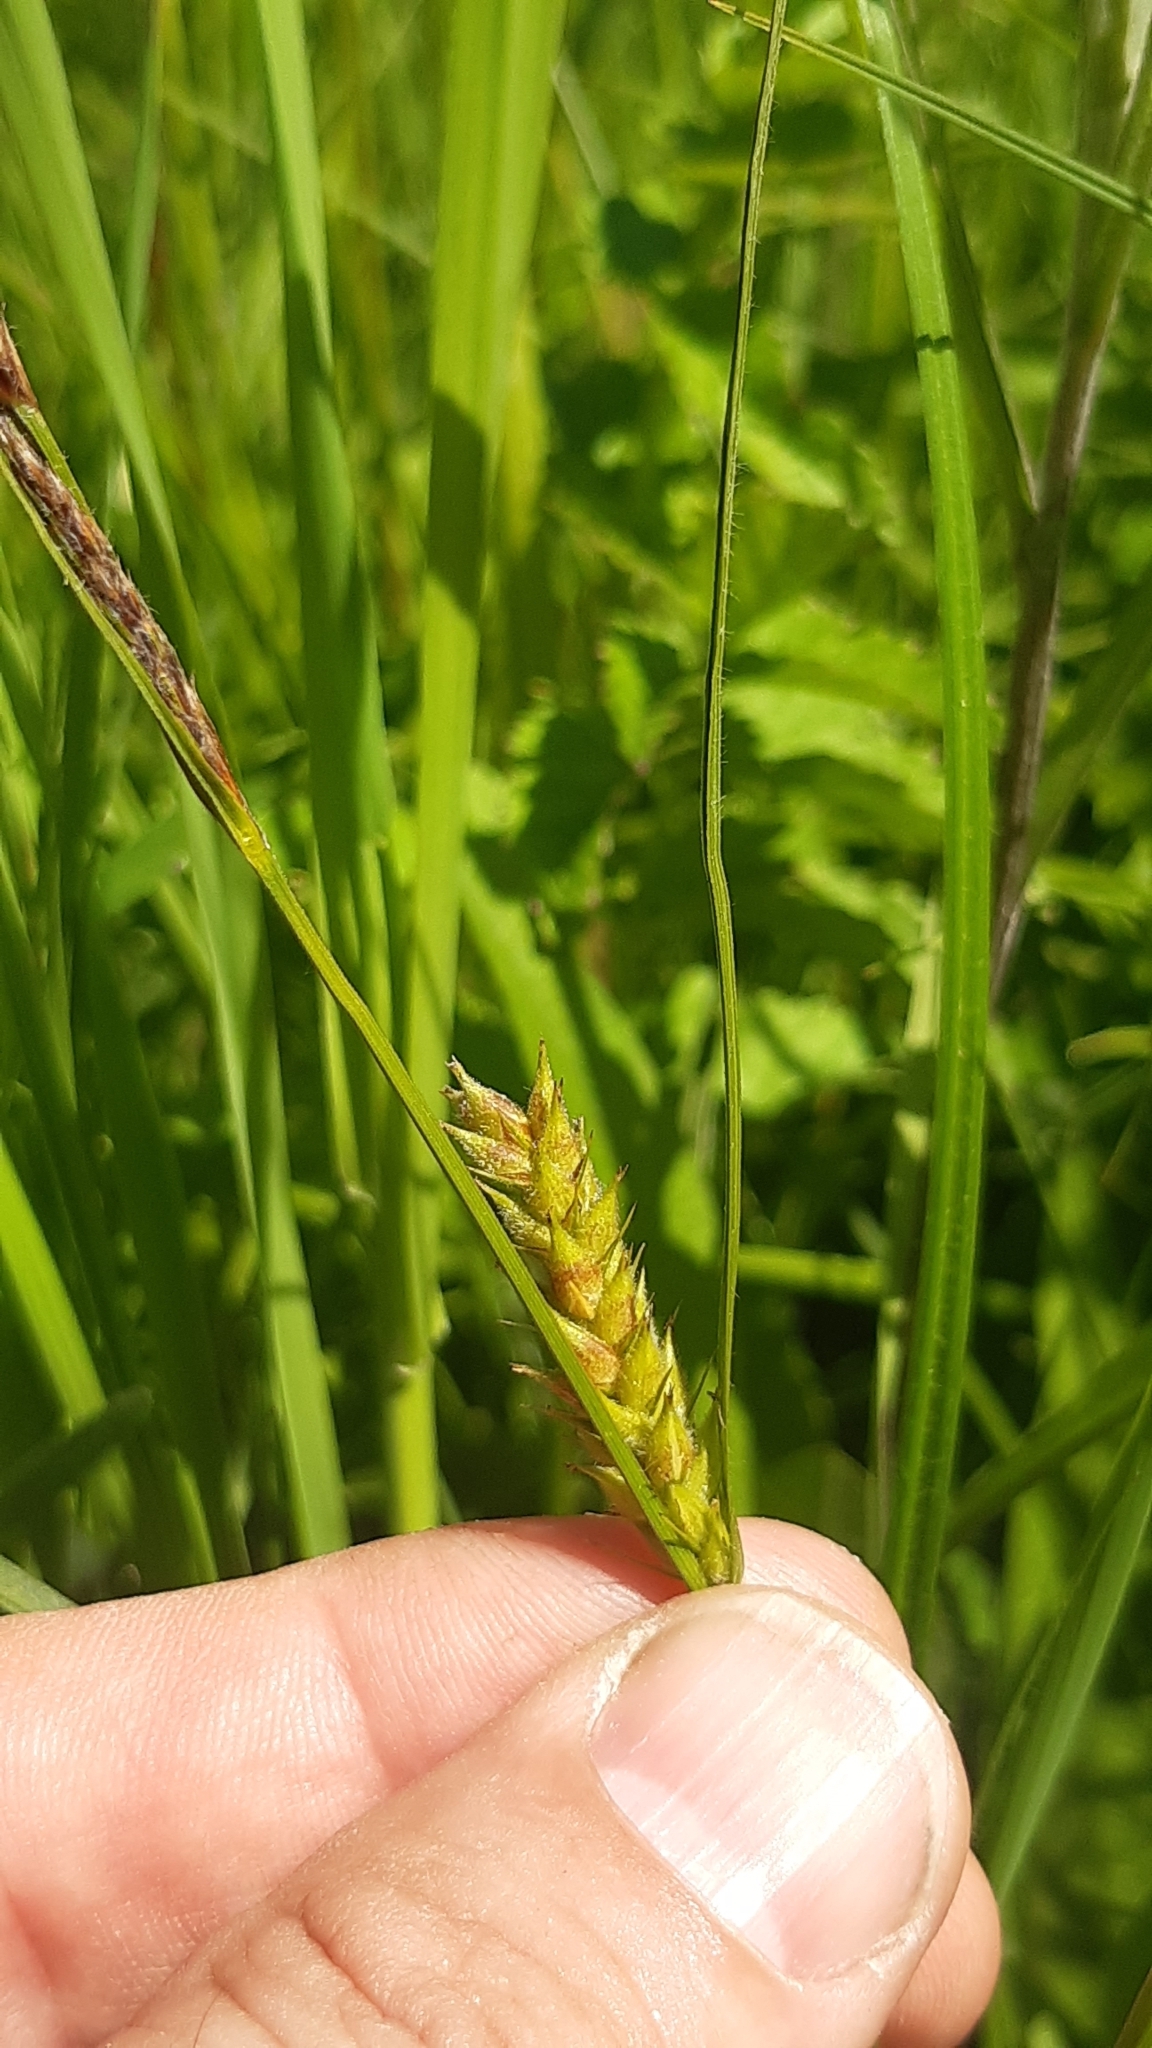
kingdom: Plantae
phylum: Tracheophyta
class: Liliopsida
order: Poales
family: Cyperaceae
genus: Carex
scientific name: Carex hirta
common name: Hairy sedge
